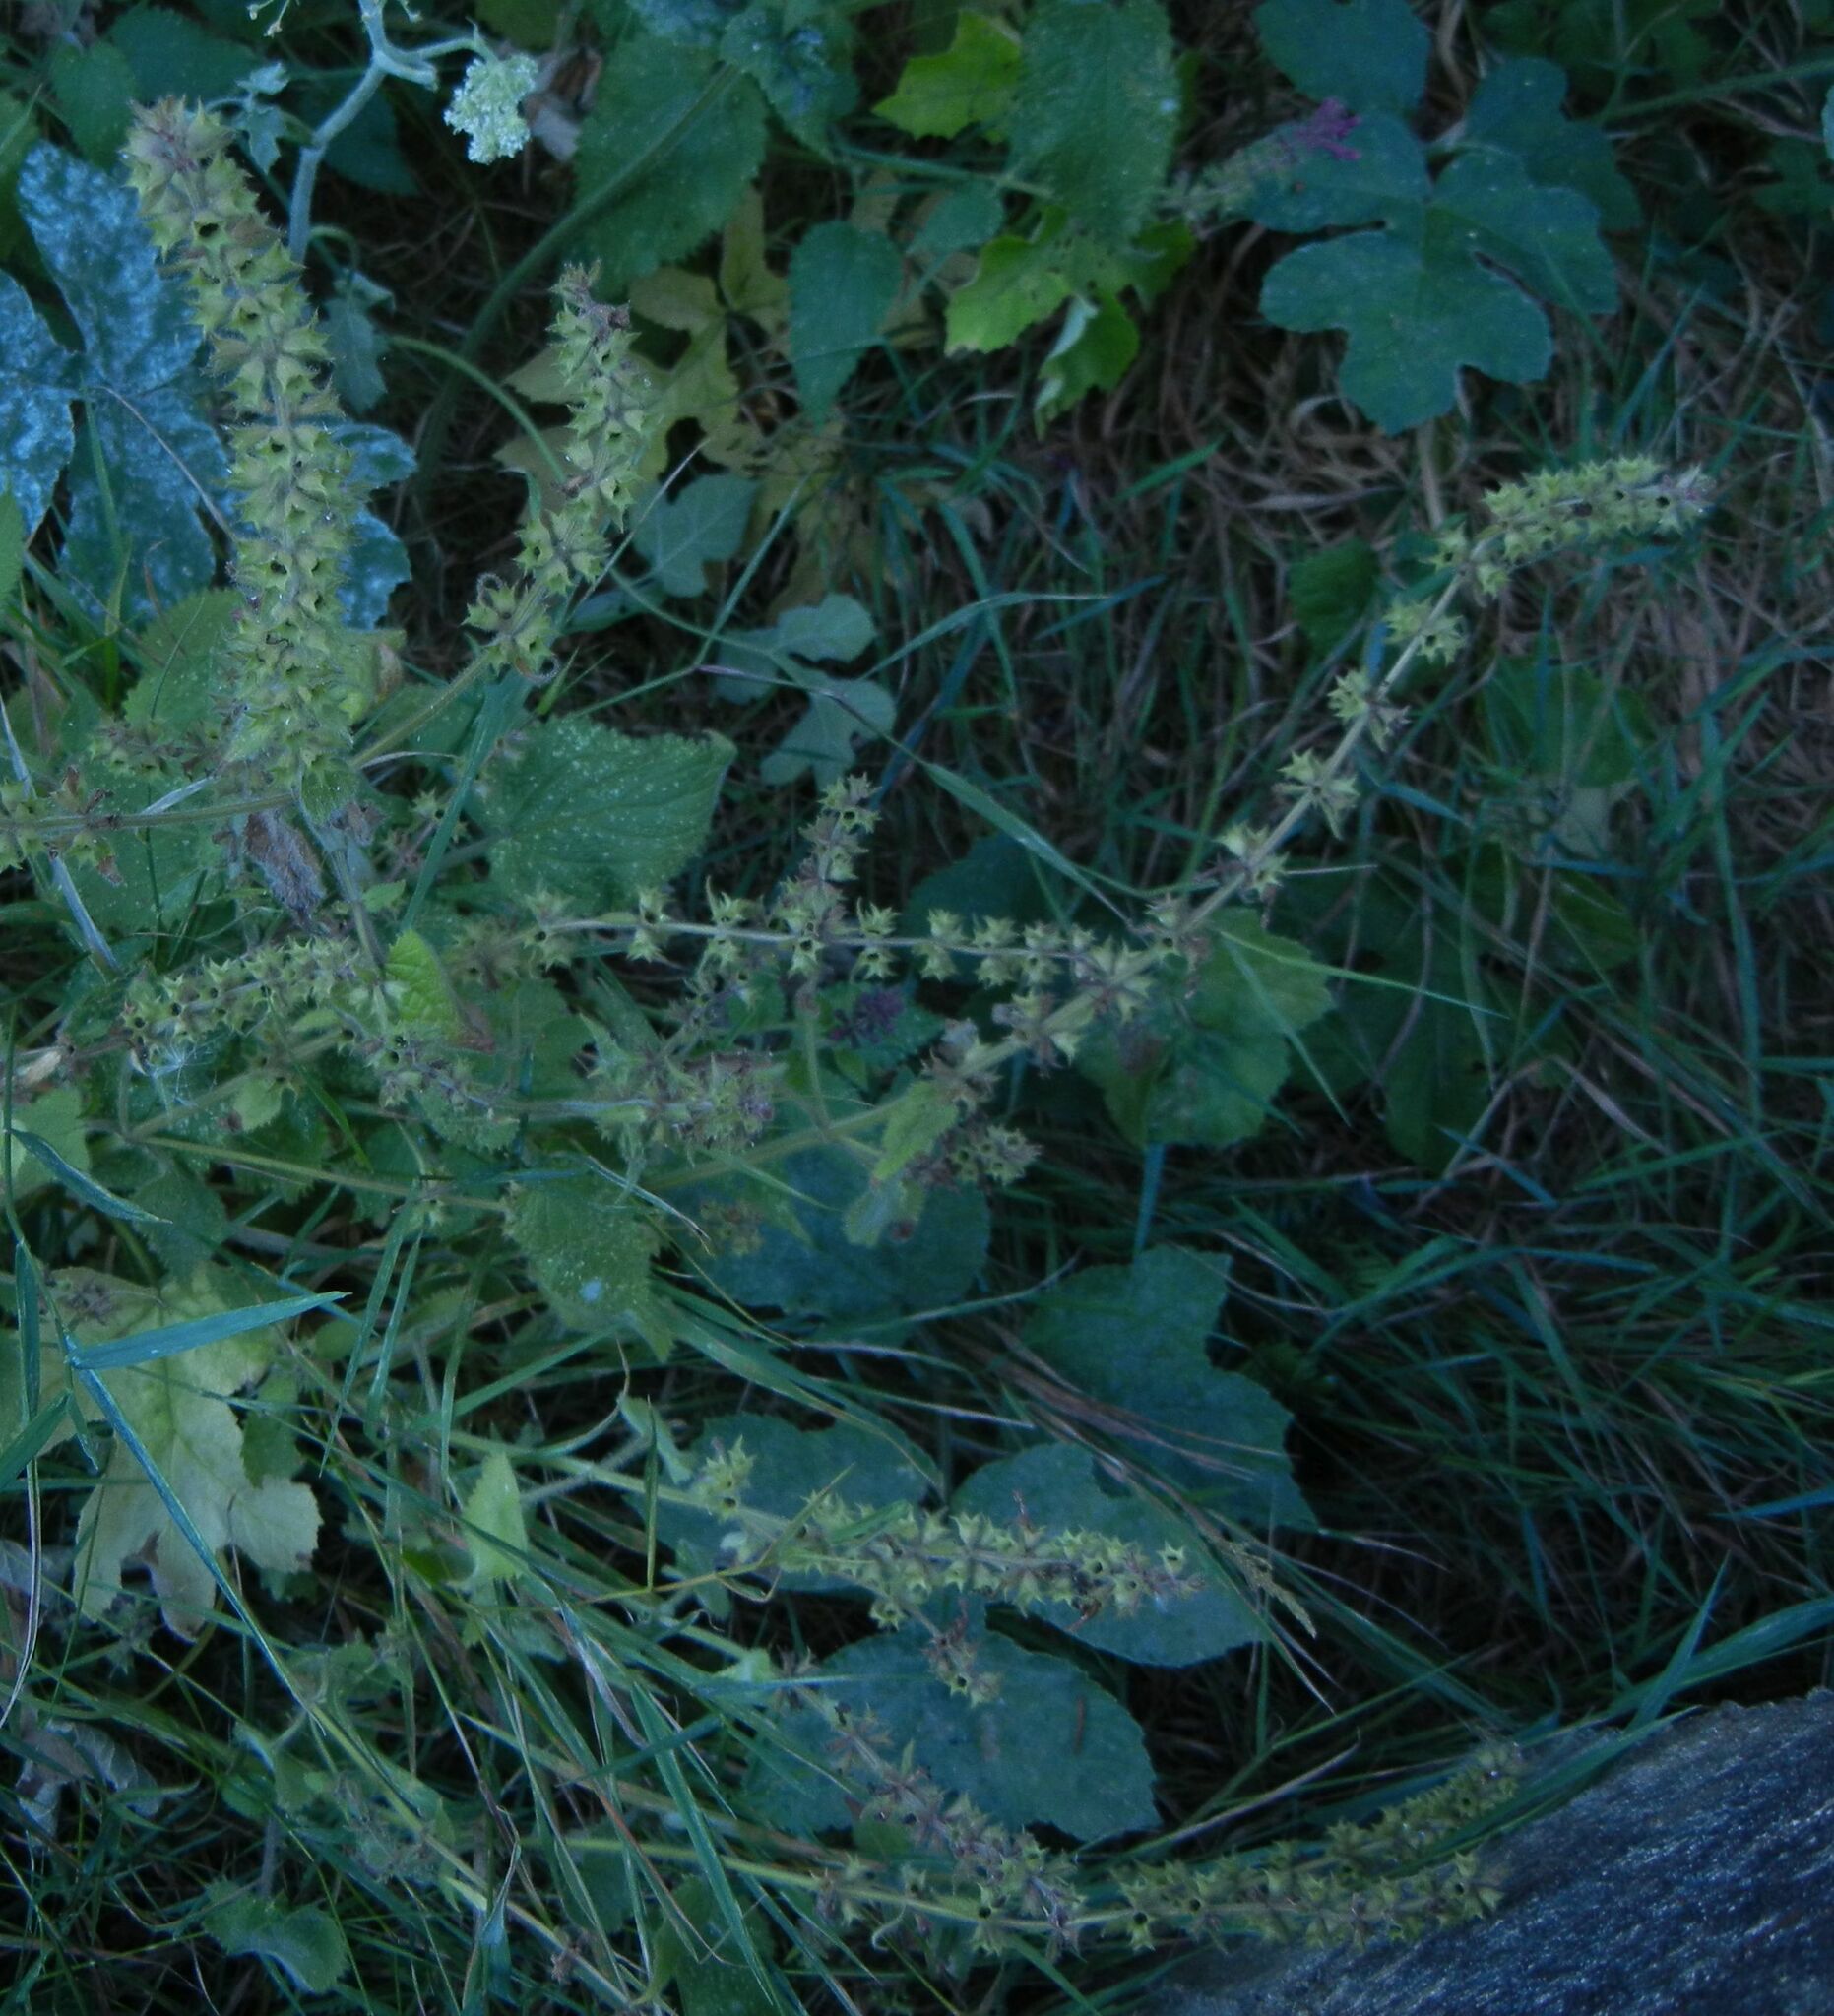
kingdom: Plantae
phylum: Tracheophyta
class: Magnoliopsida
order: Lamiales
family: Lamiaceae
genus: Stachys
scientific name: Stachys sylvatica
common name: Hedge woundwort
